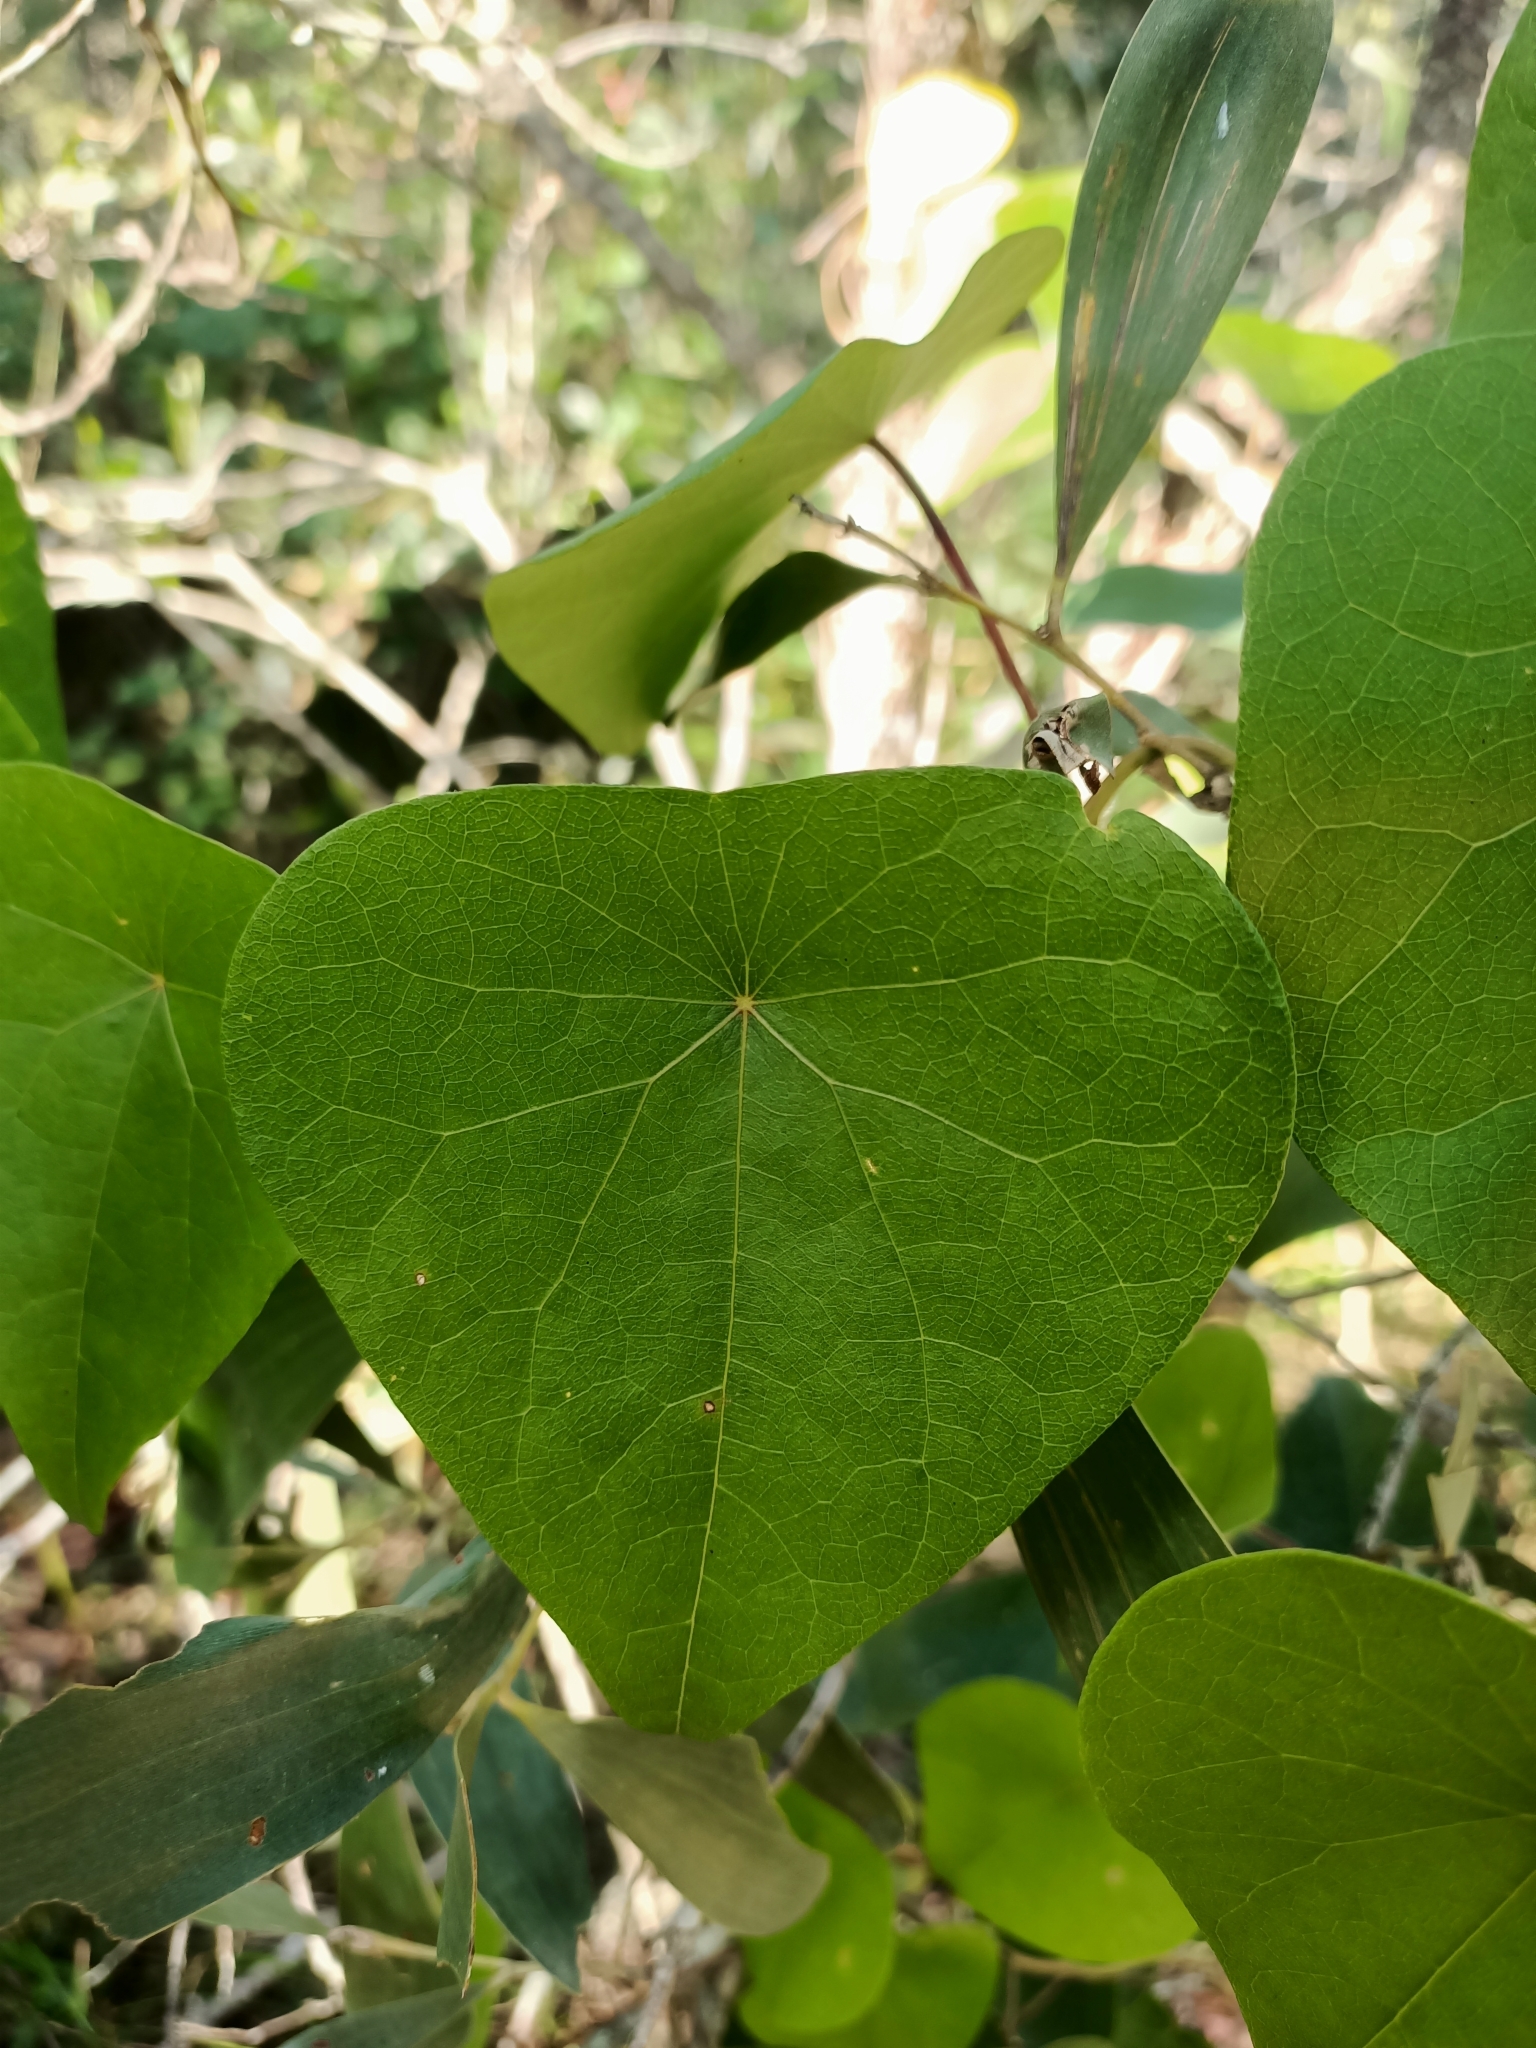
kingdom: Plantae
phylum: Tracheophyta
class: Magnoliopsida
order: Ranunculales
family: Menispermaceae
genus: Stephania
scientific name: Stephania japonica
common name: Snake vine
